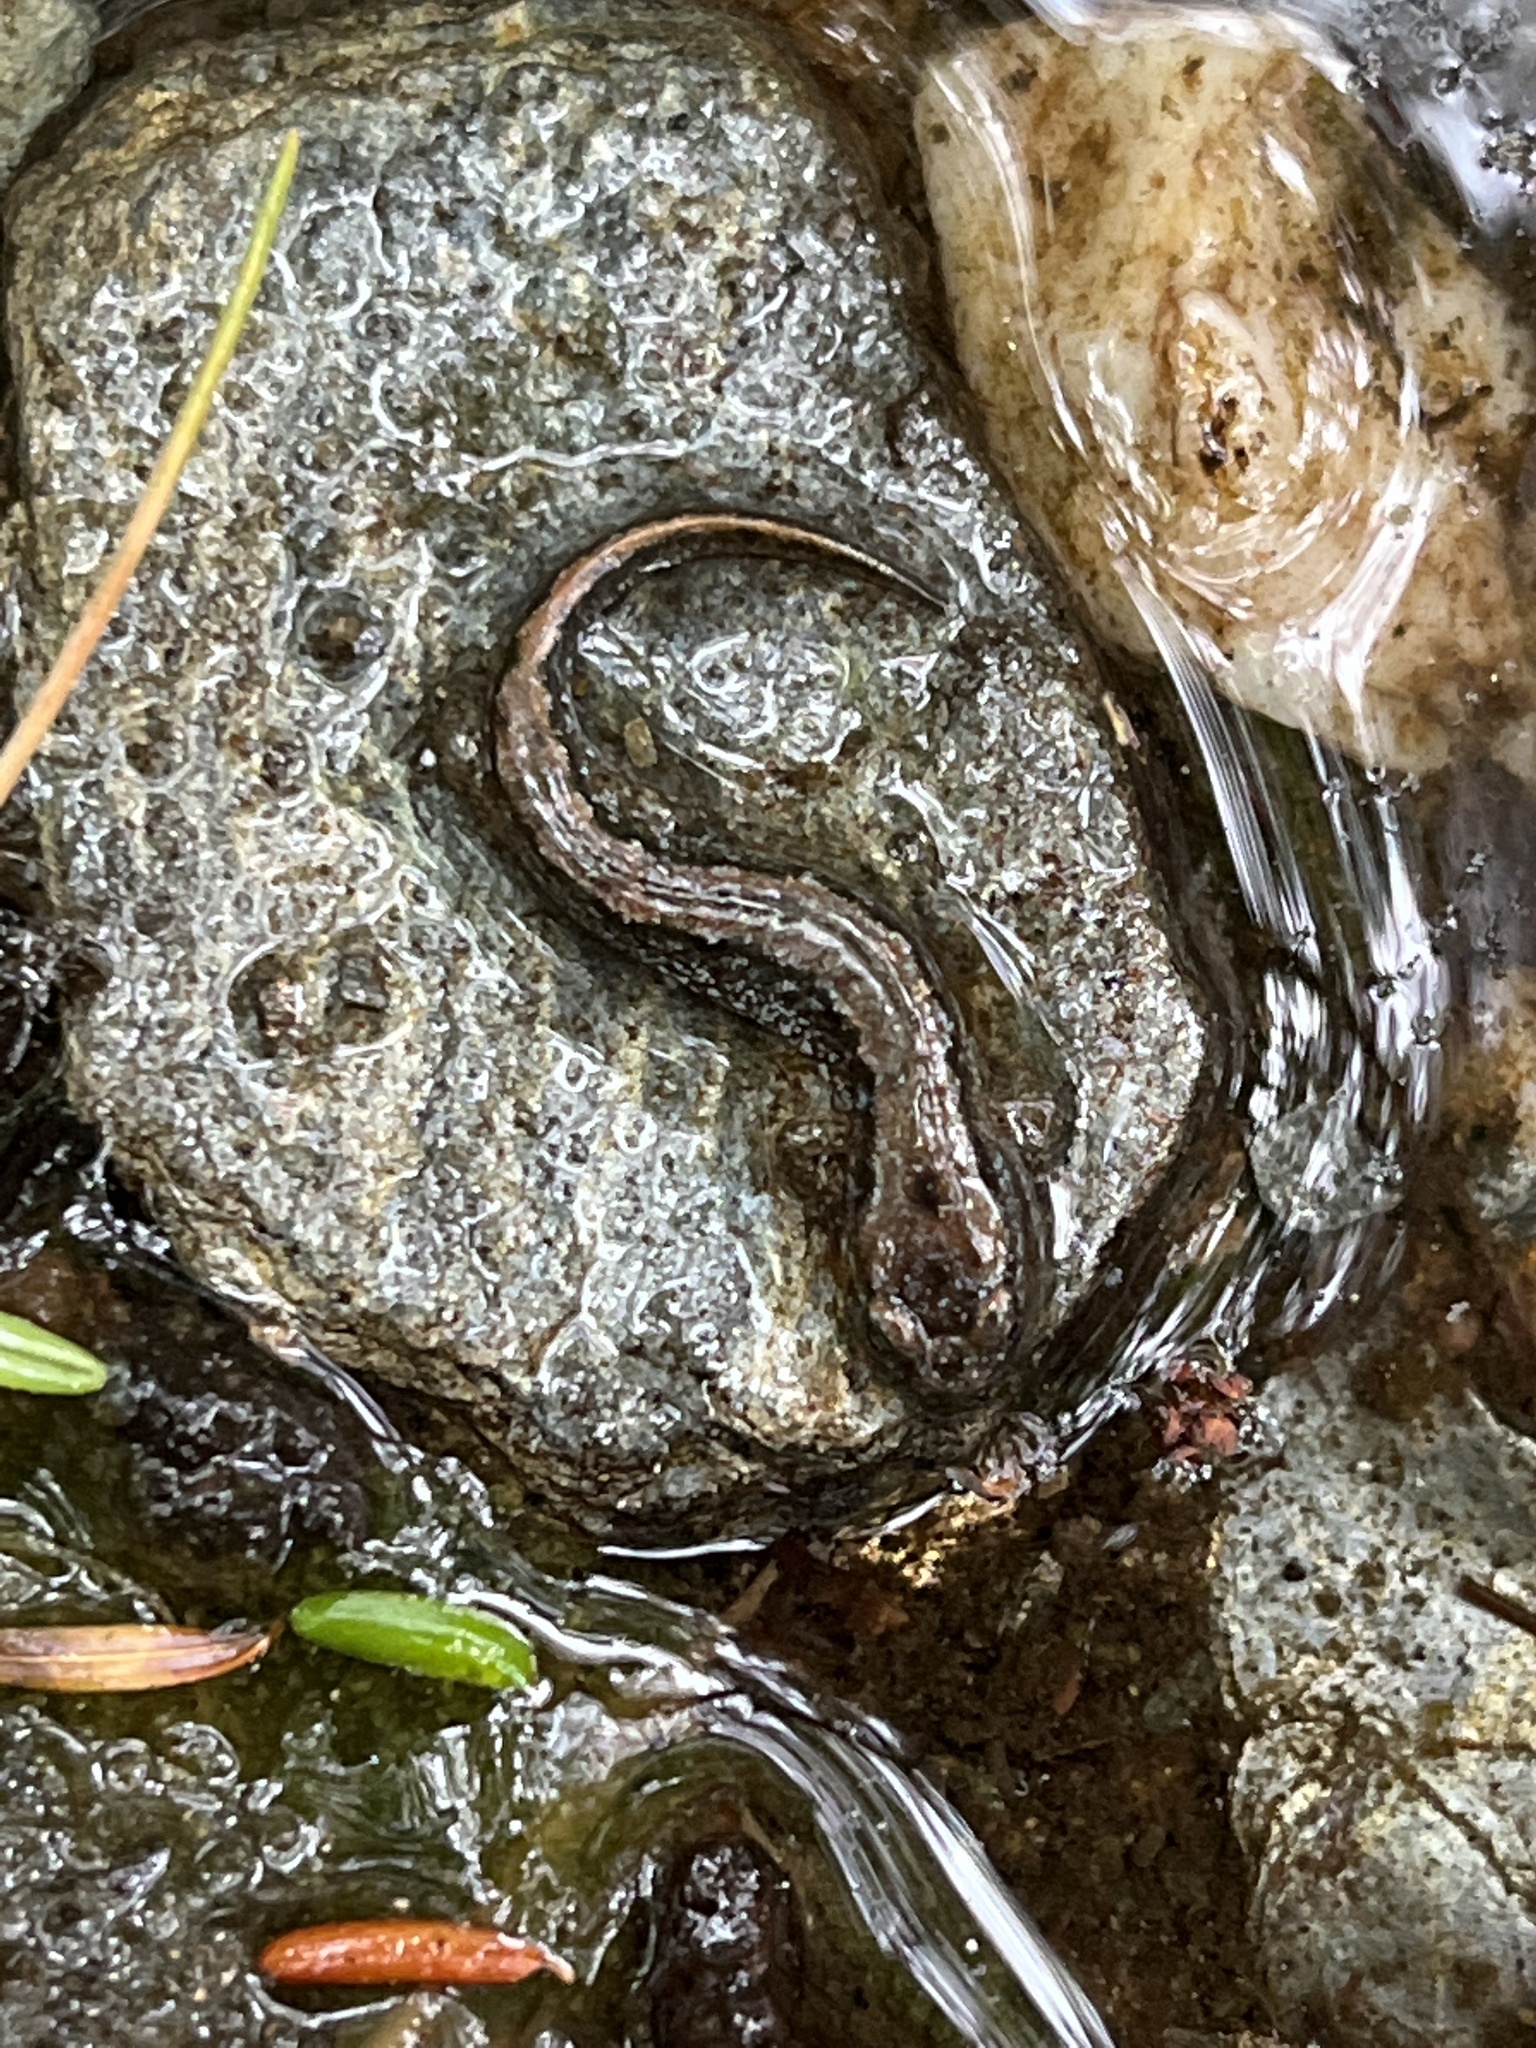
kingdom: Animalia
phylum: Chordata
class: Amphibia
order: Caudata
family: Plethodontidae
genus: Desmognathus
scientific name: Desmognathus fuscus
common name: Northern dusky salamander
